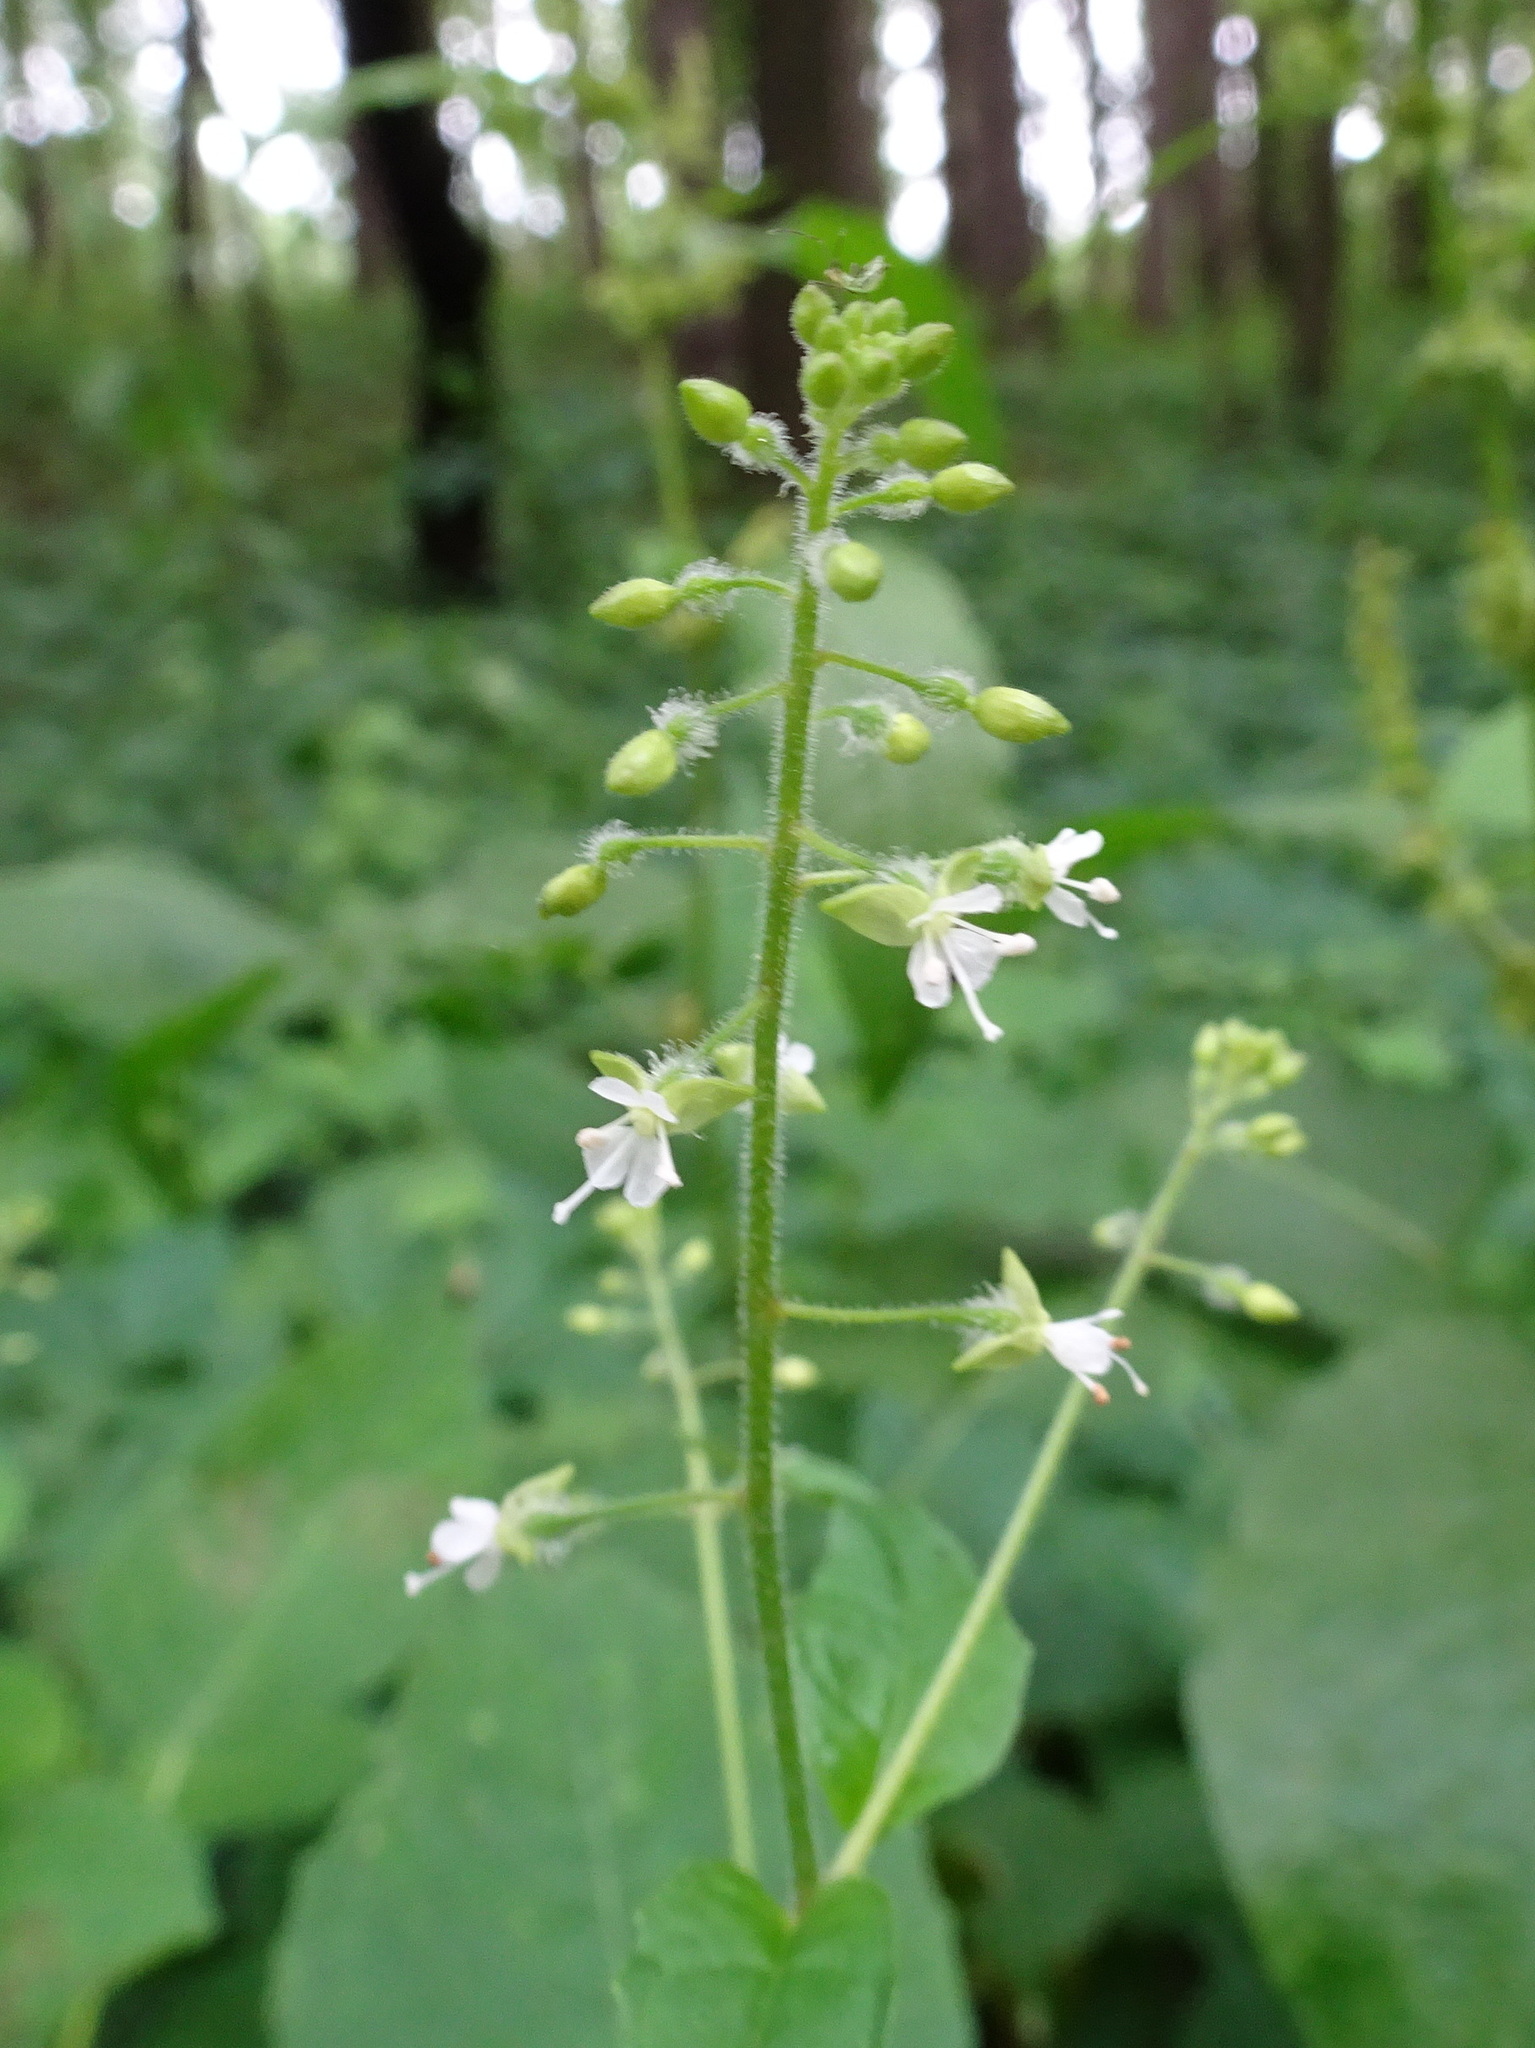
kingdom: Plantae
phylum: Tracheophyta
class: Magnoliopsida
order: Myrtales
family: Onagraceae
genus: Circaea
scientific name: Circaea canadensis
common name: Broad-leaved enchanter's nightshade
